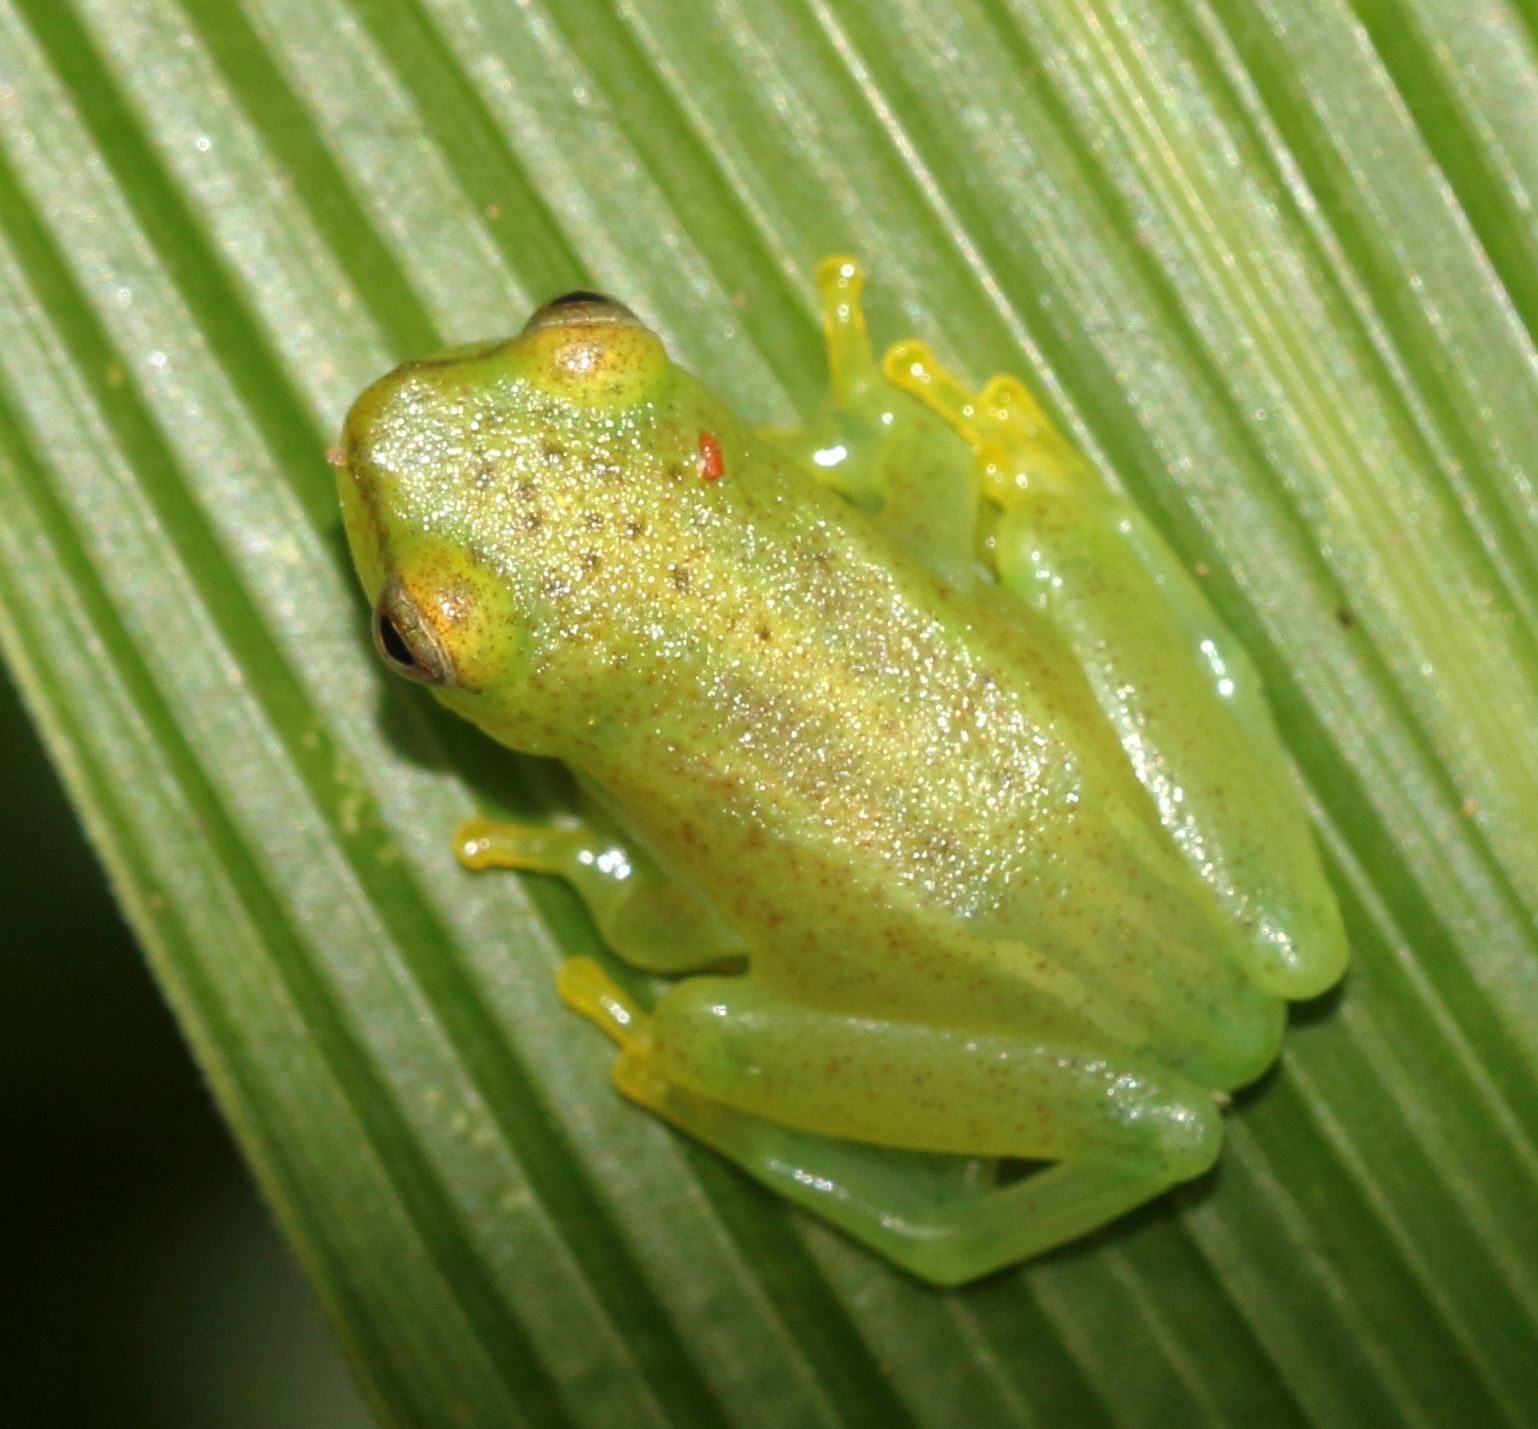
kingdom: Animalia
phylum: Chordata
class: Amphibia
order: Anura
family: Hyperoliidae
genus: Hyperolius
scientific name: Hyperolius pusillus
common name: Water lily reed frog
